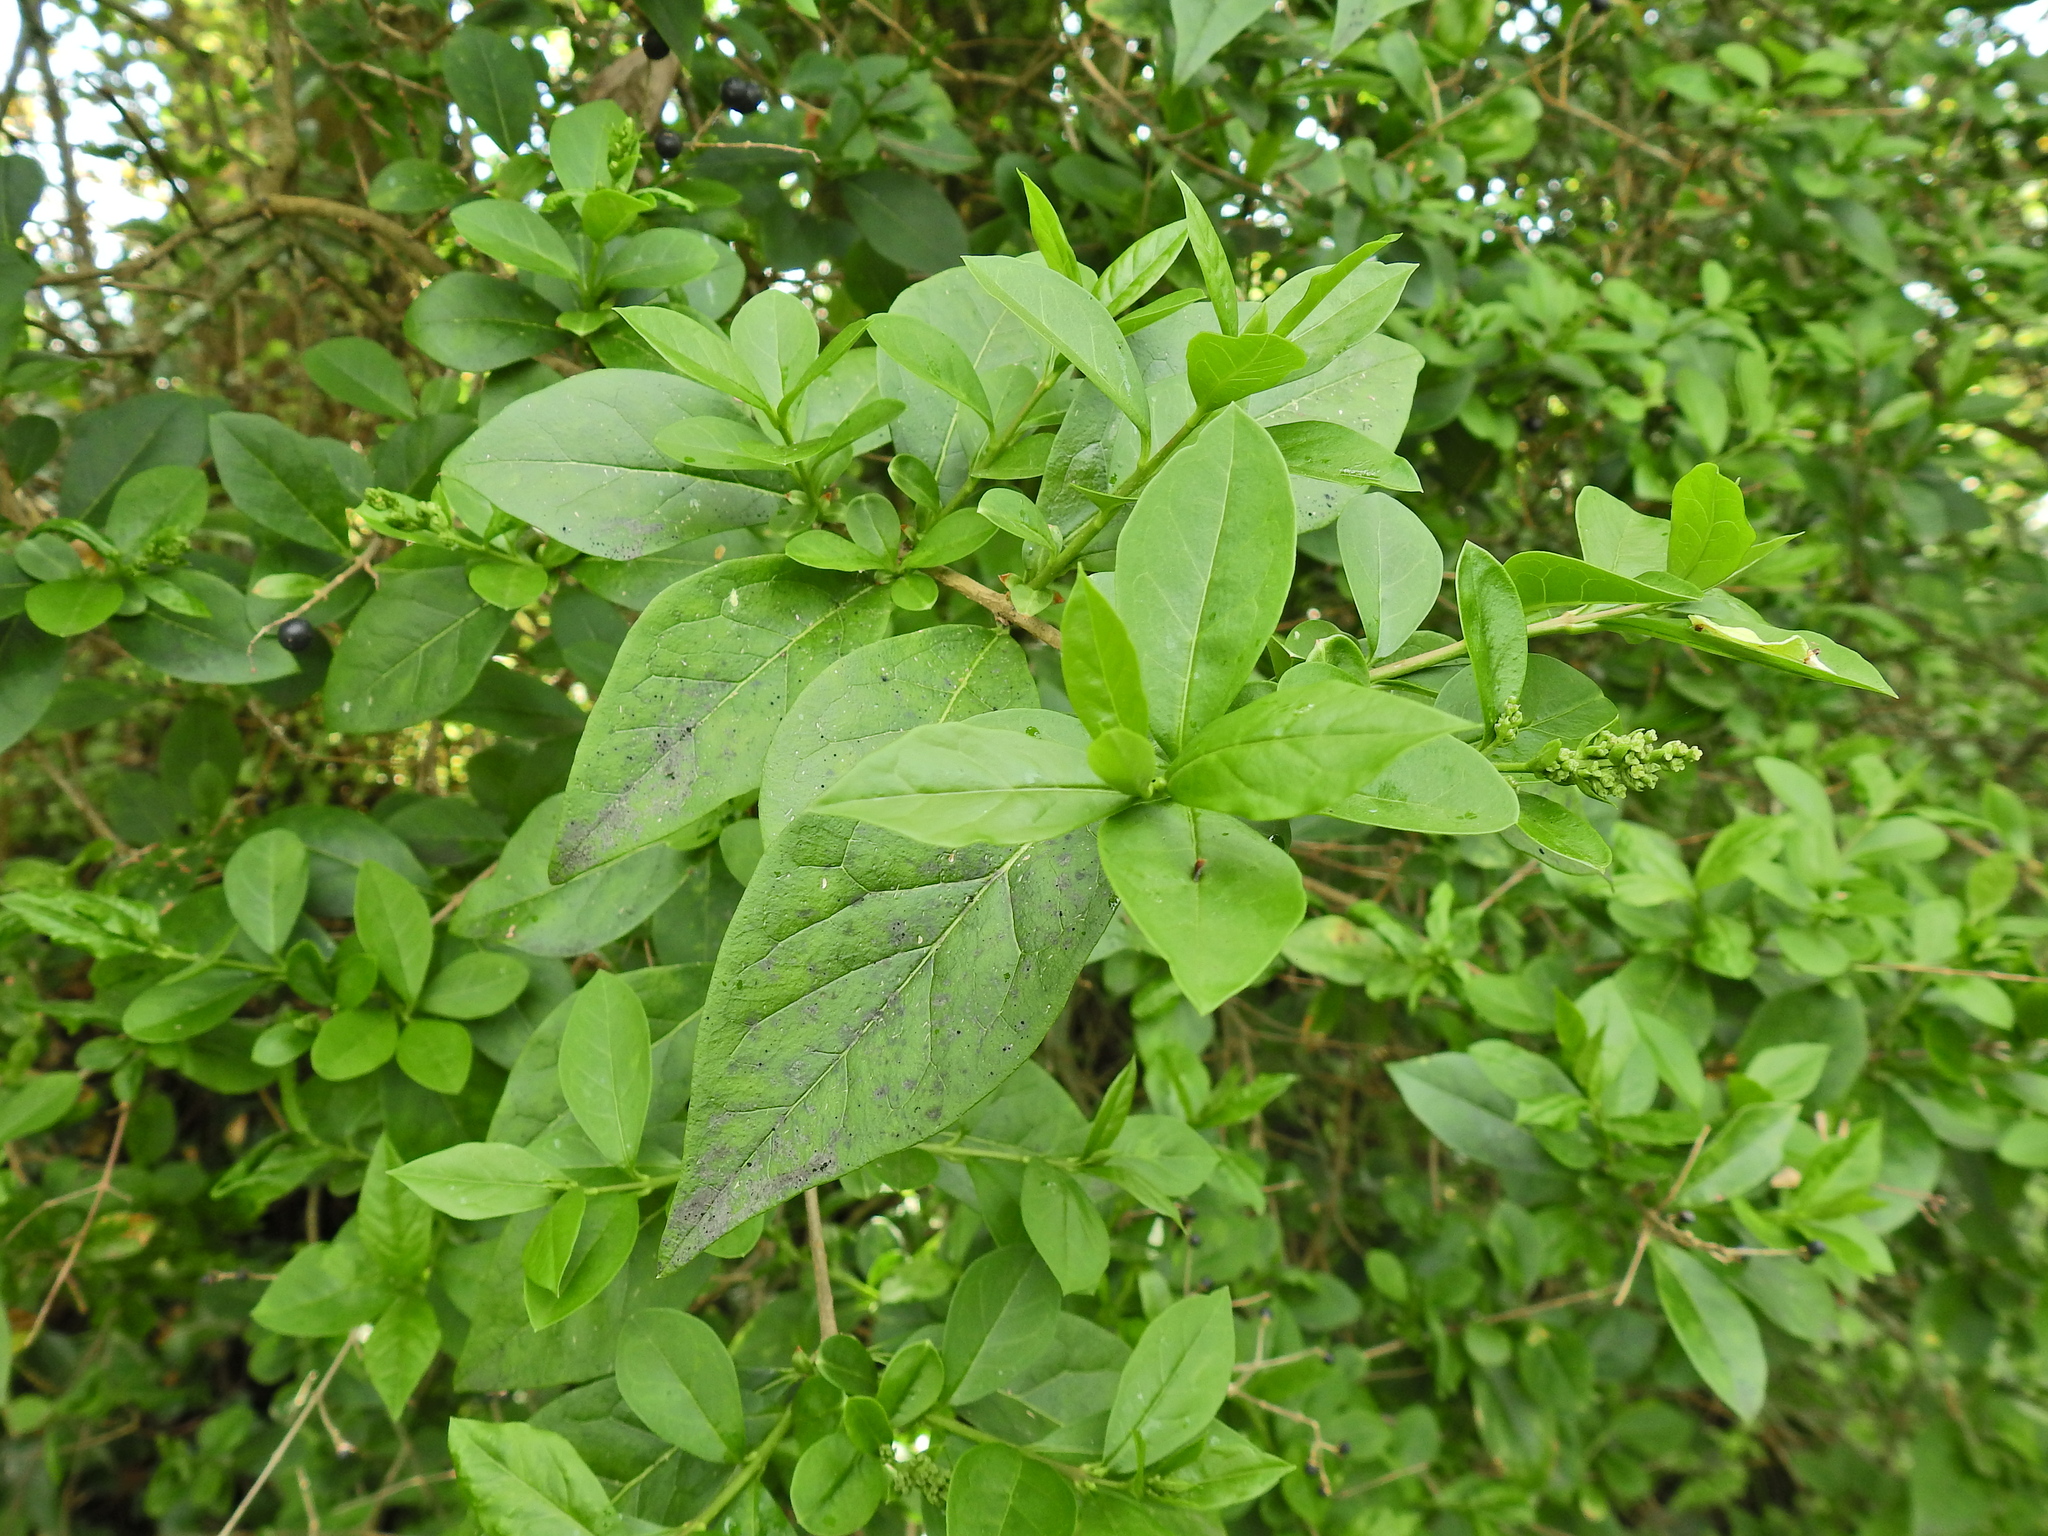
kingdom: Plantae
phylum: Tracheophyta
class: Magnoliopsida
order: Lamiales
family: Oleaceae
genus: Ligustrum
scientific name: Ligustrum ovalifolium
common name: California privet
